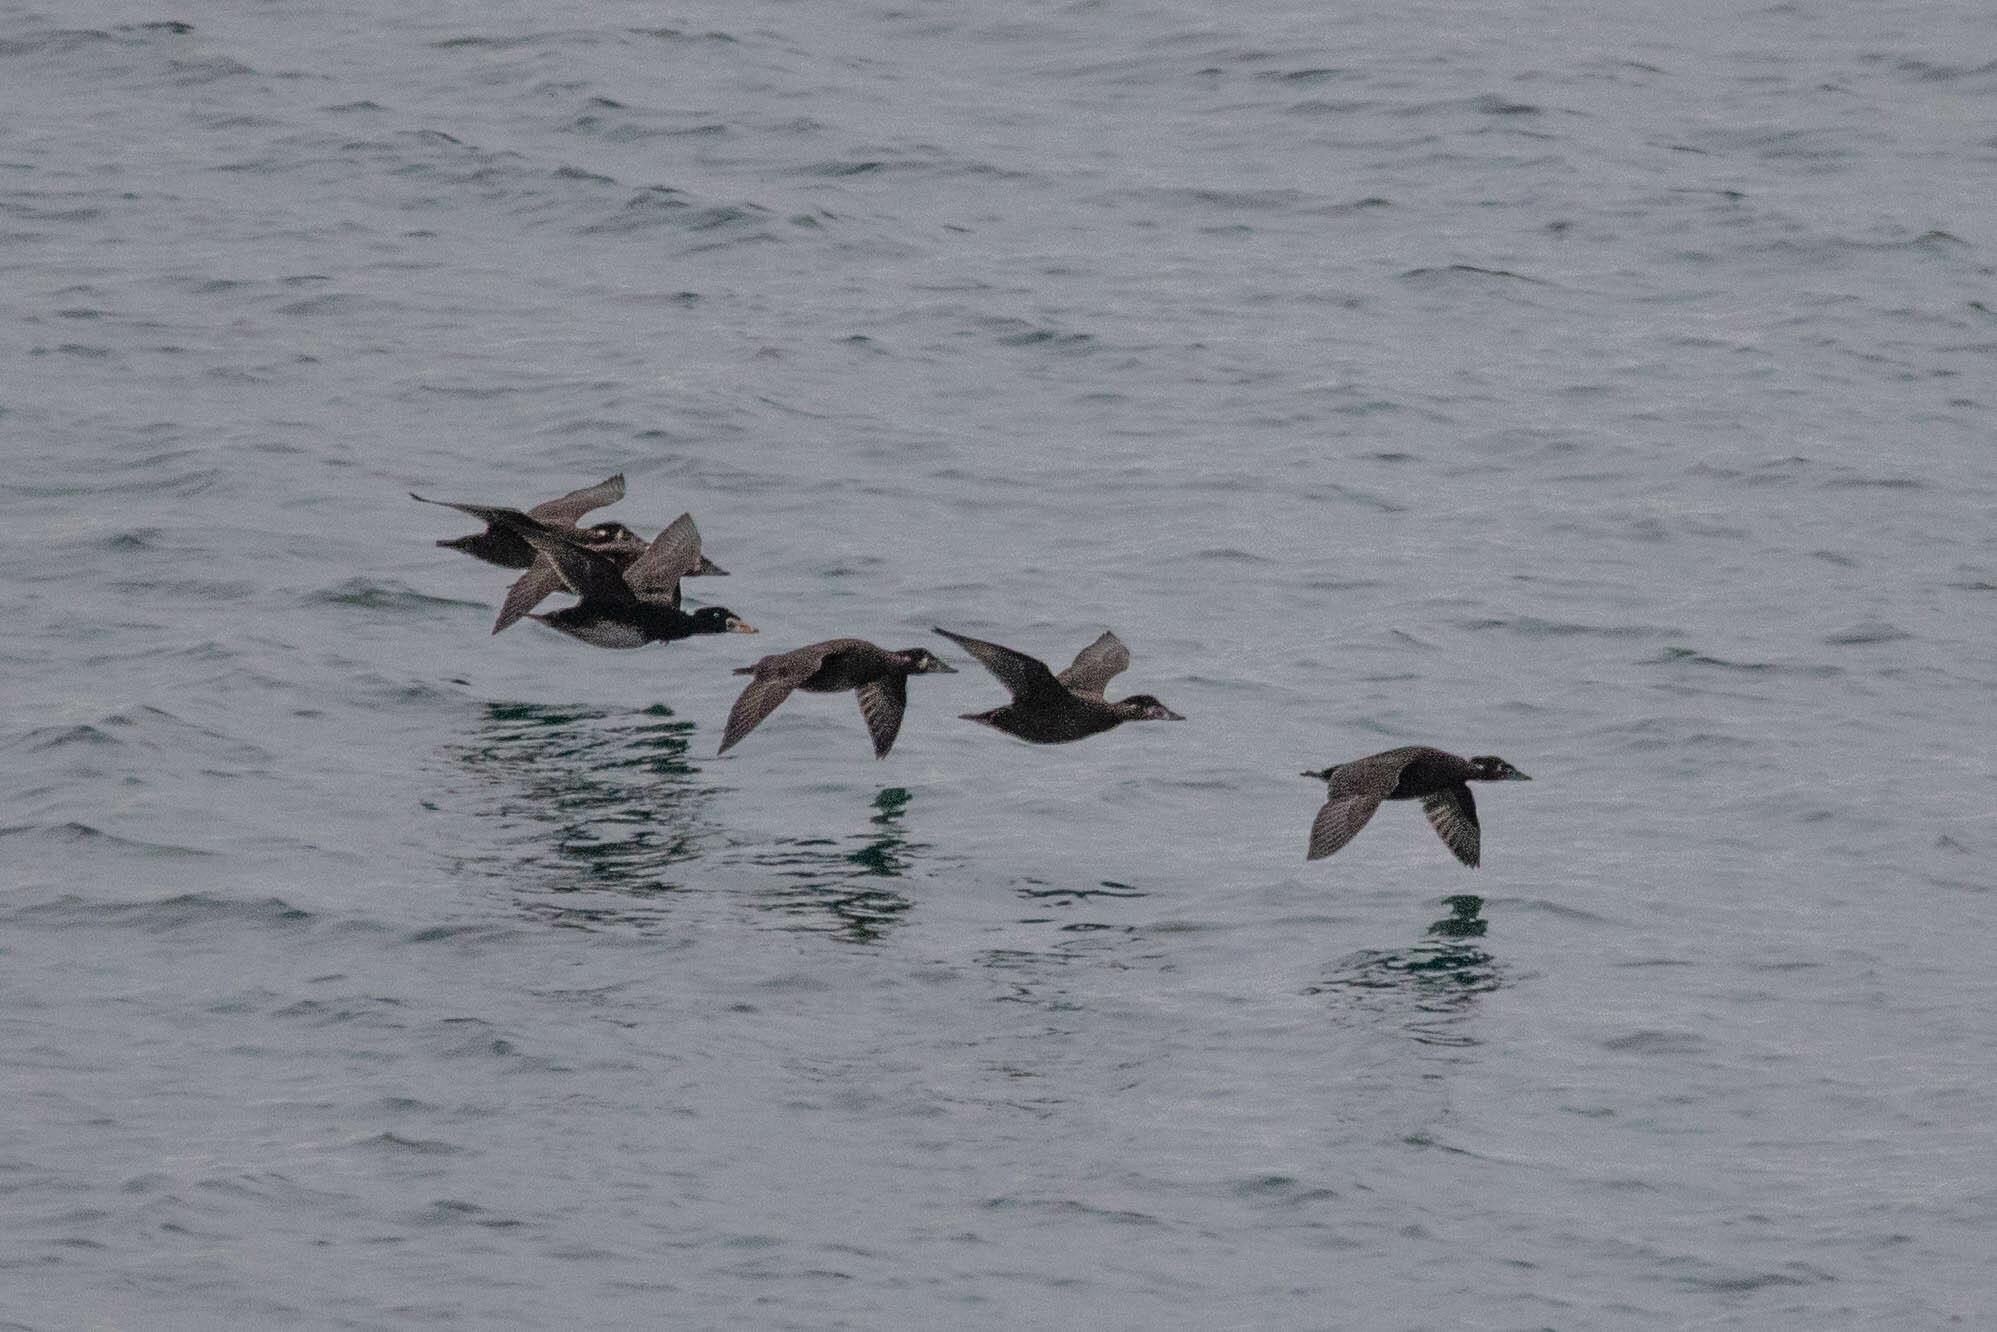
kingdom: Animalia
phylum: Chordata
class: Aves
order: Anseriformes
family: Anatidae
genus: Melanitta
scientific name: Melanitta perspicillata
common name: Surf scoter
